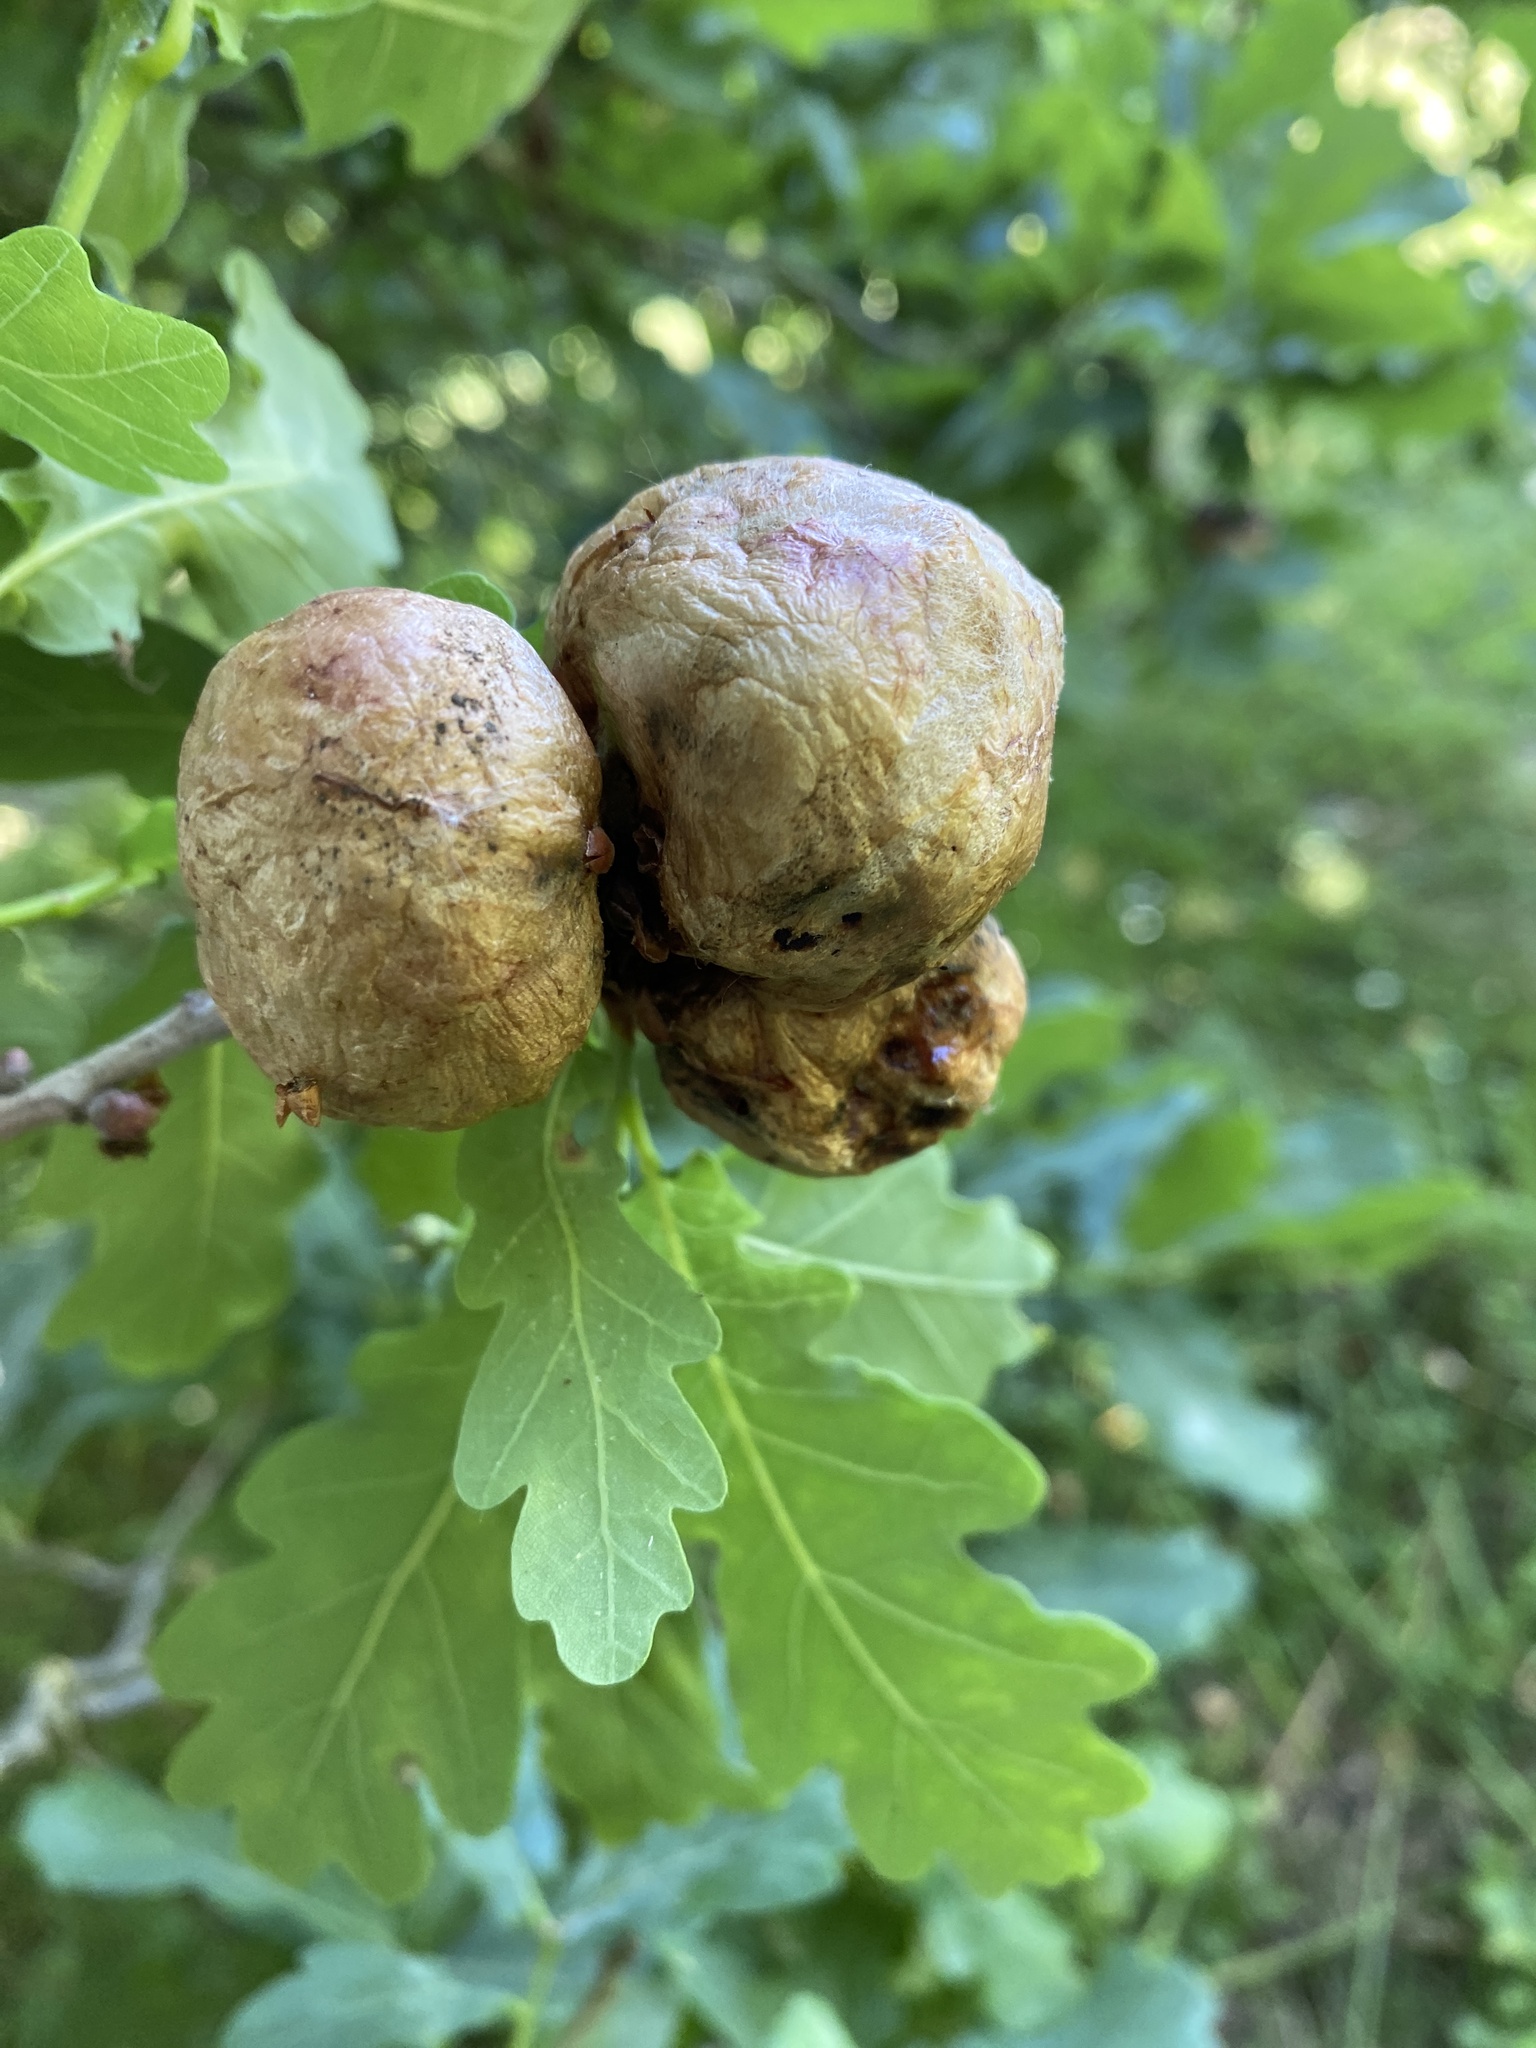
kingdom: Animalia
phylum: Arthropoda
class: Insecta
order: Hymenoptera
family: Cynipidae
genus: Biorhiza
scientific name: Biorhiza pallida
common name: Oak apple
